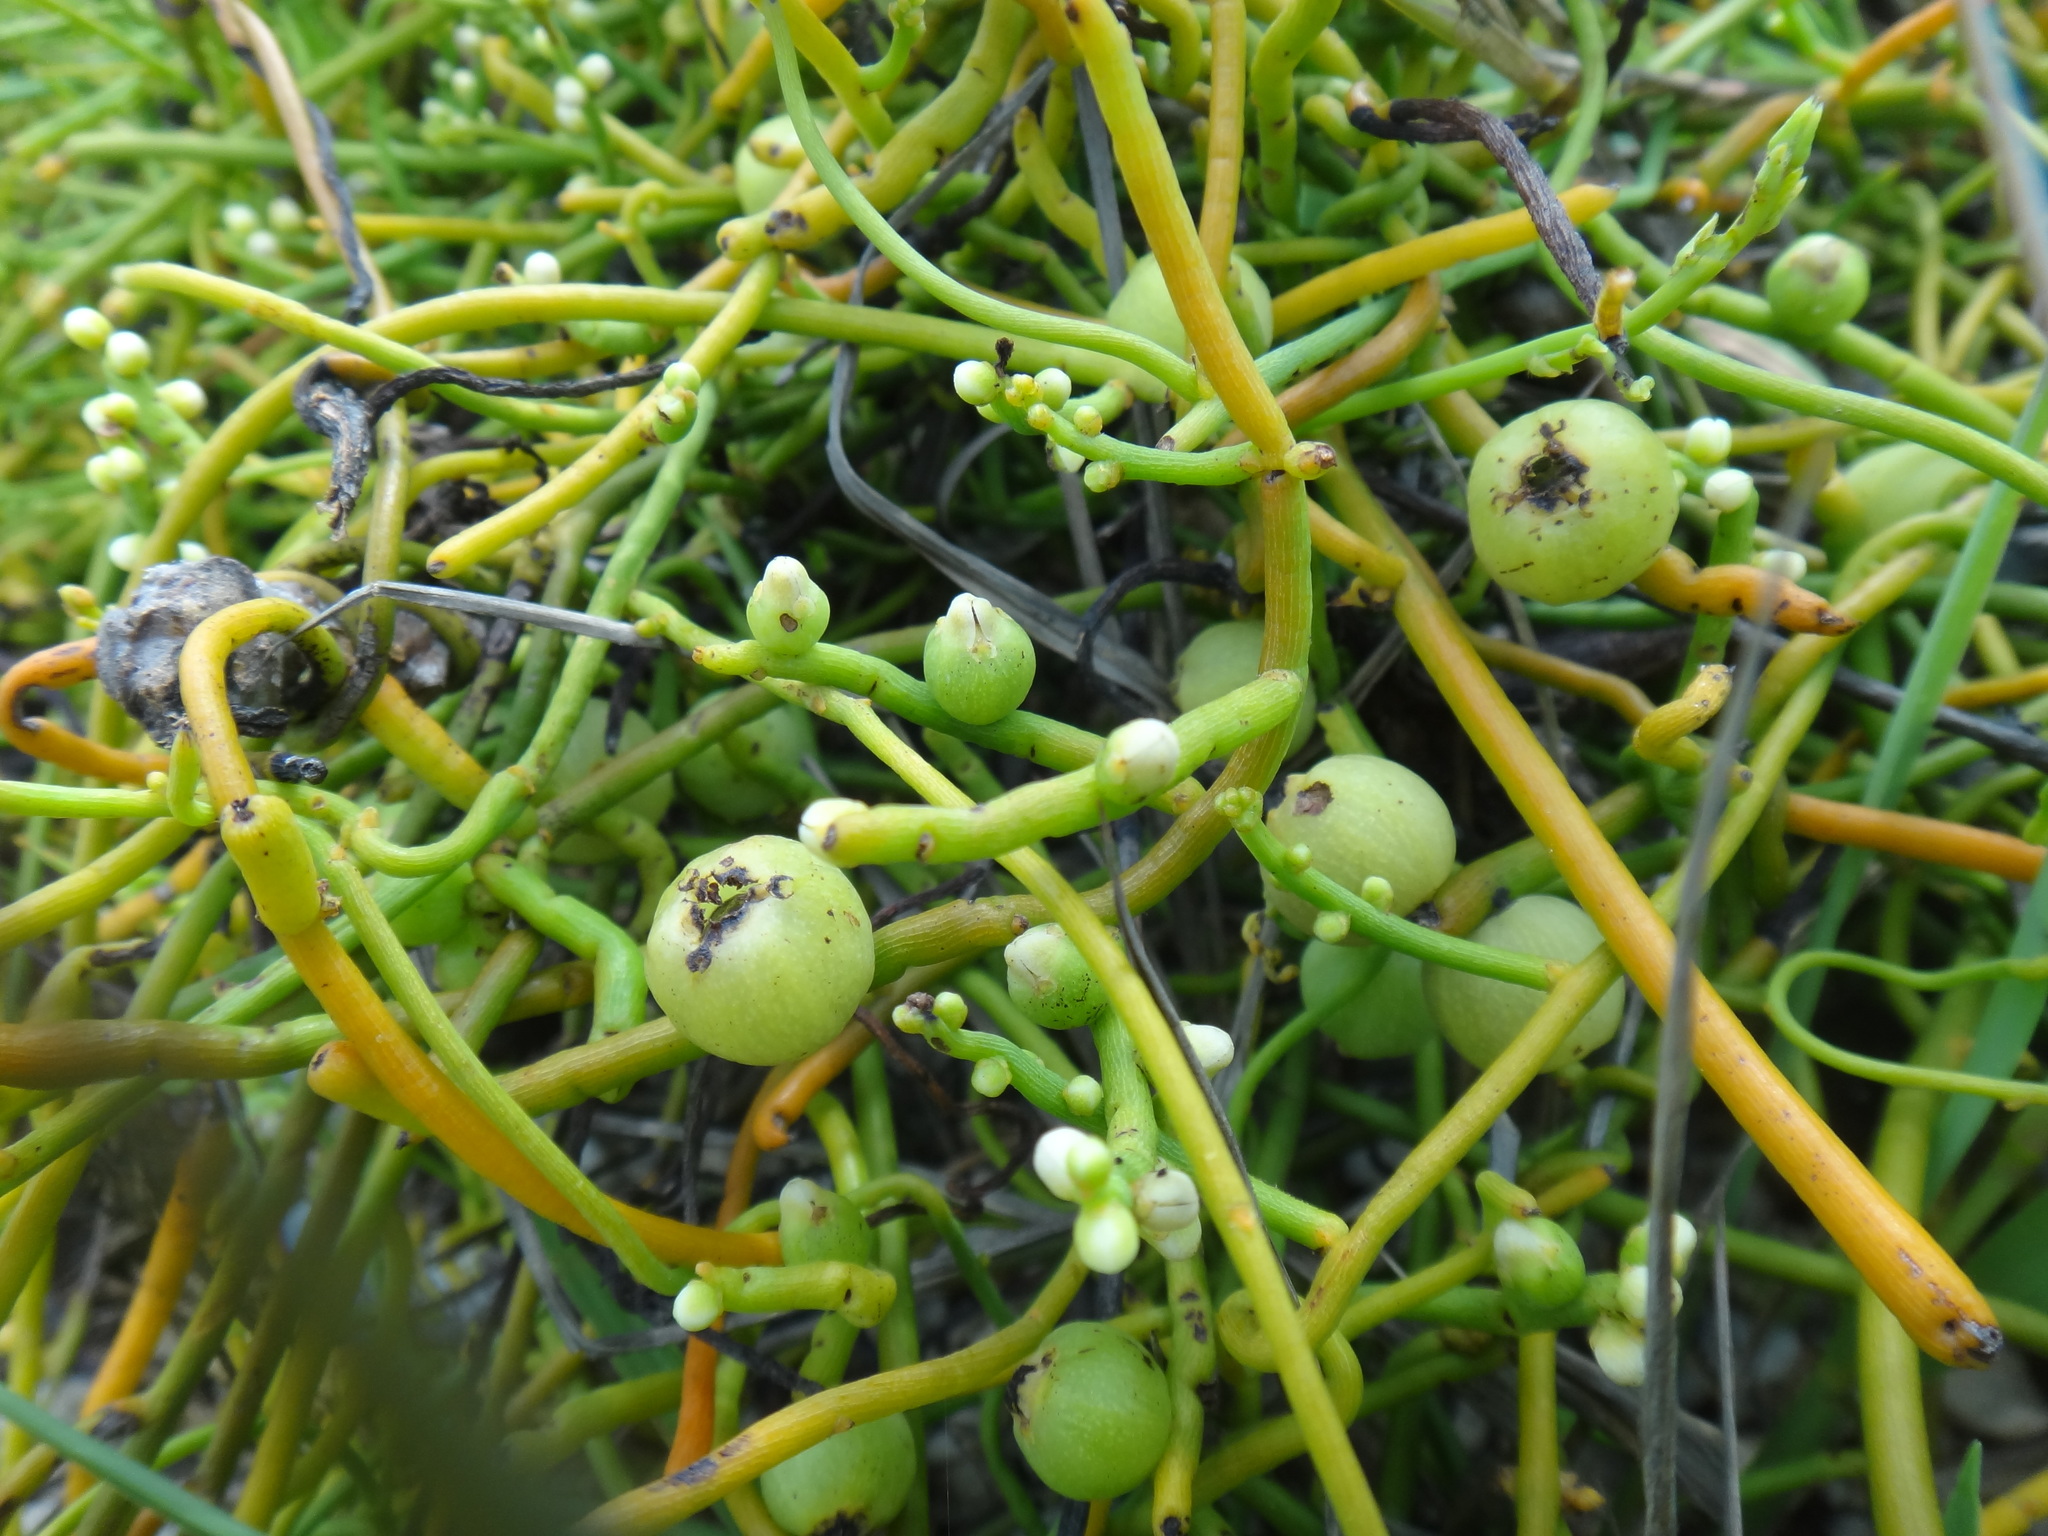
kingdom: Plantae
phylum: Tracheophyta
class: Magnoliopsida
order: Laurales
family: Lauraceae
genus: Cassytha
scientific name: Cassytha filiformis
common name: Dodder-laurel
